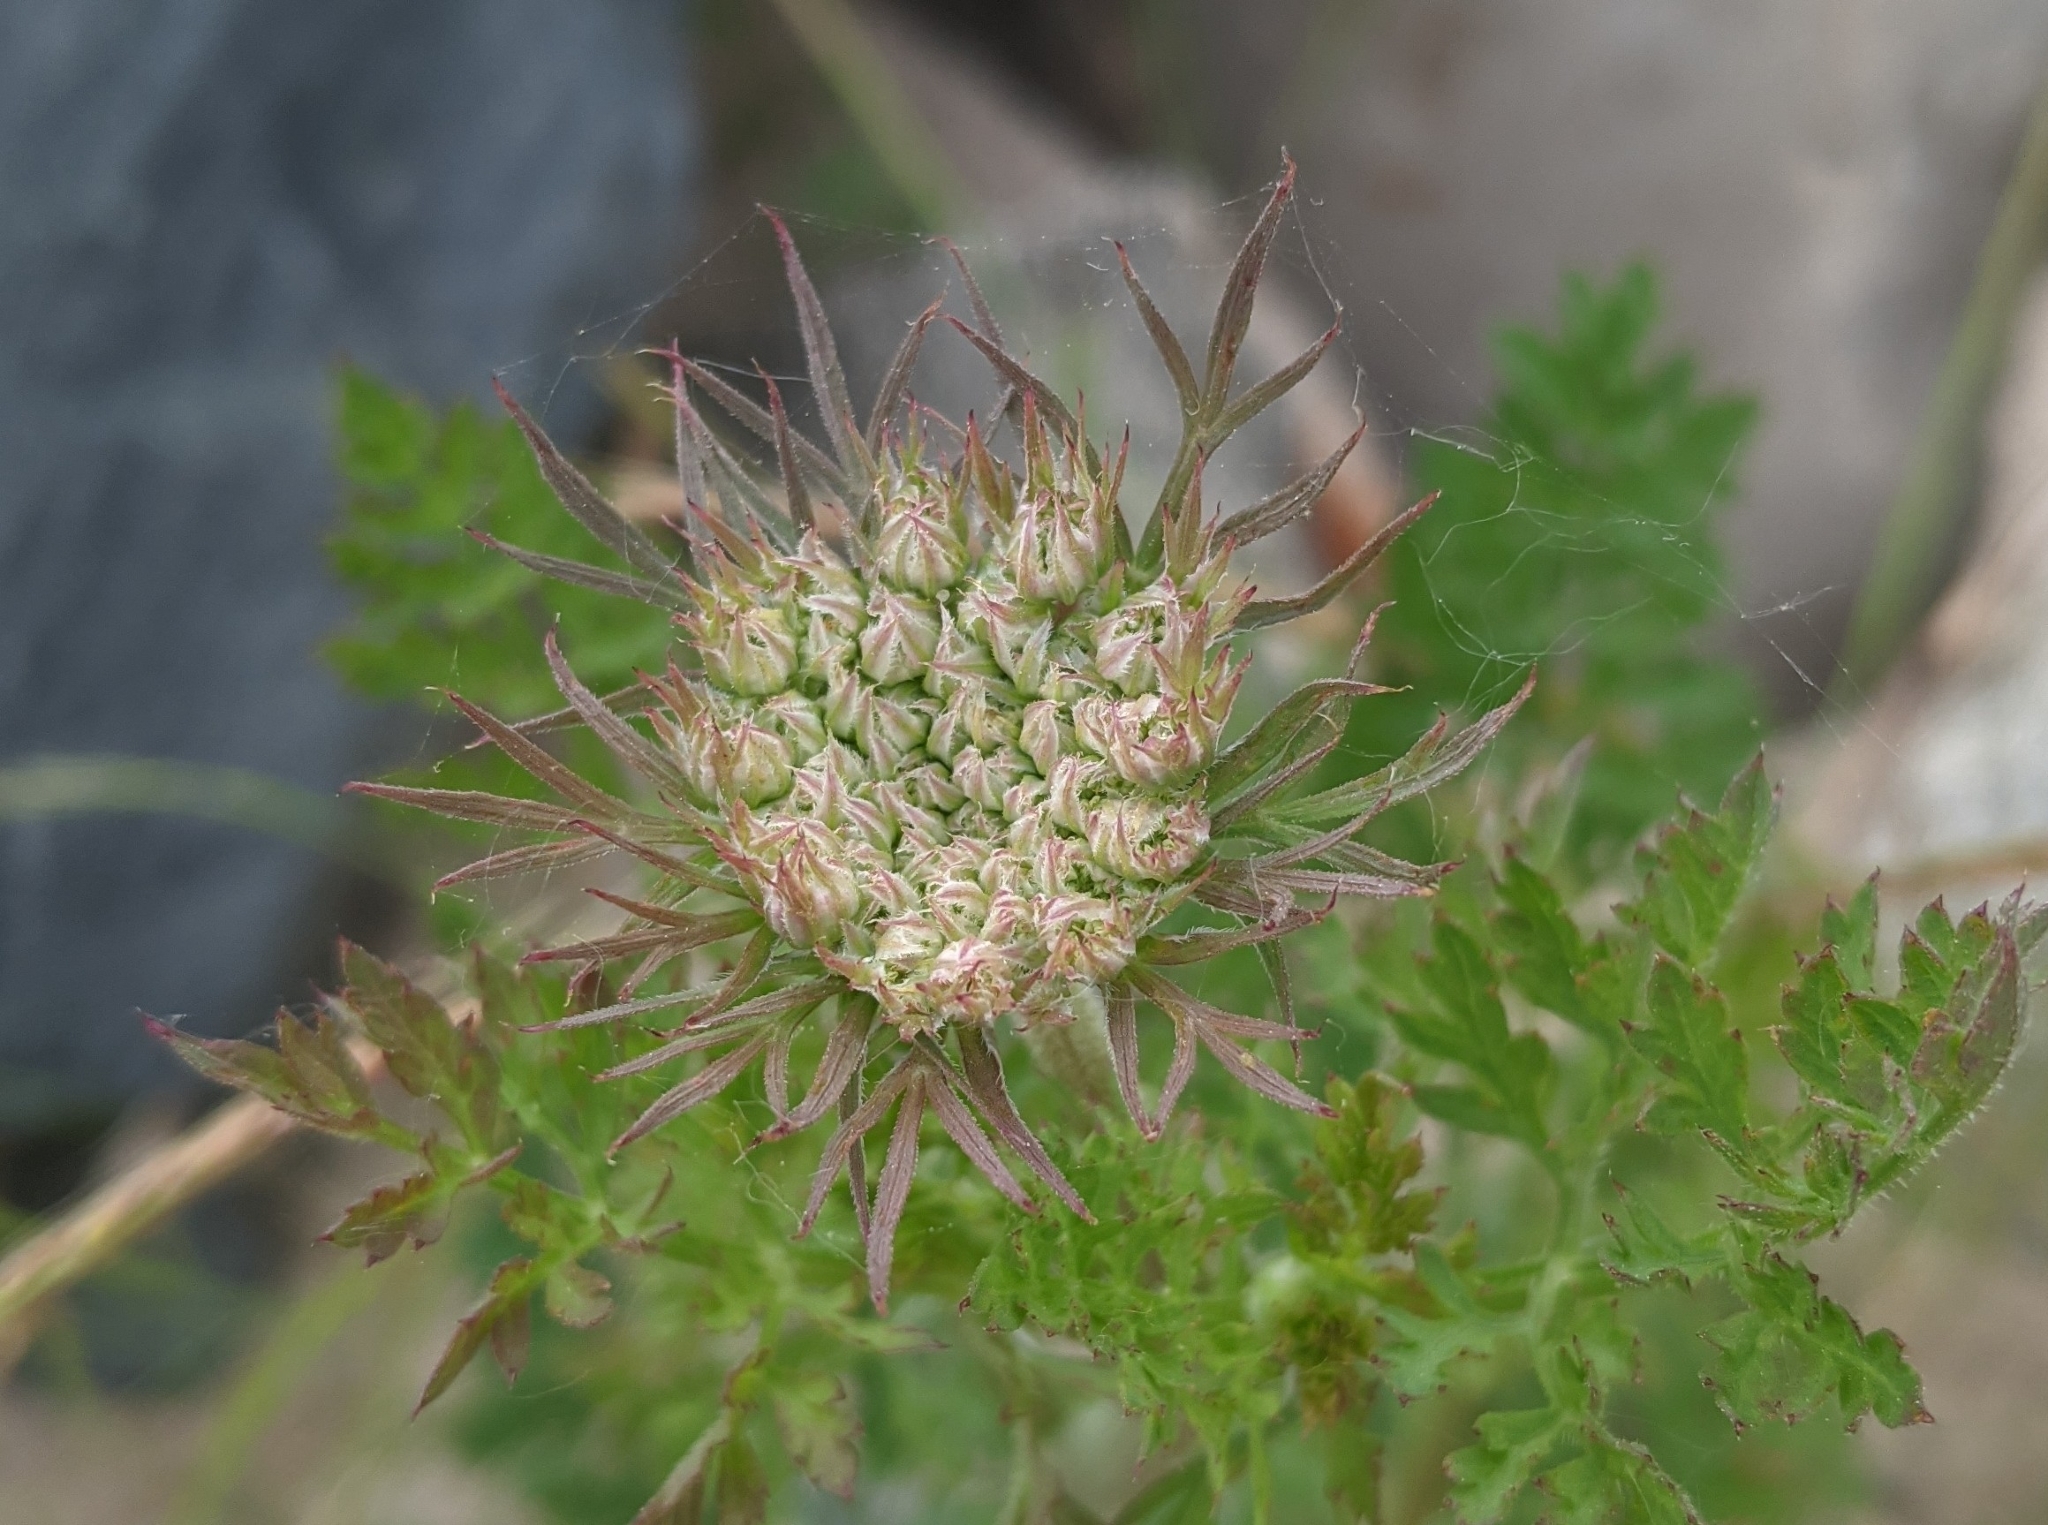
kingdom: Plantae
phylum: Tracheophyta
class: Magnoliopsida
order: Apiales
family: Apiaceae
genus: Daucus
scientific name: Daucus carota
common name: Wild carrot
